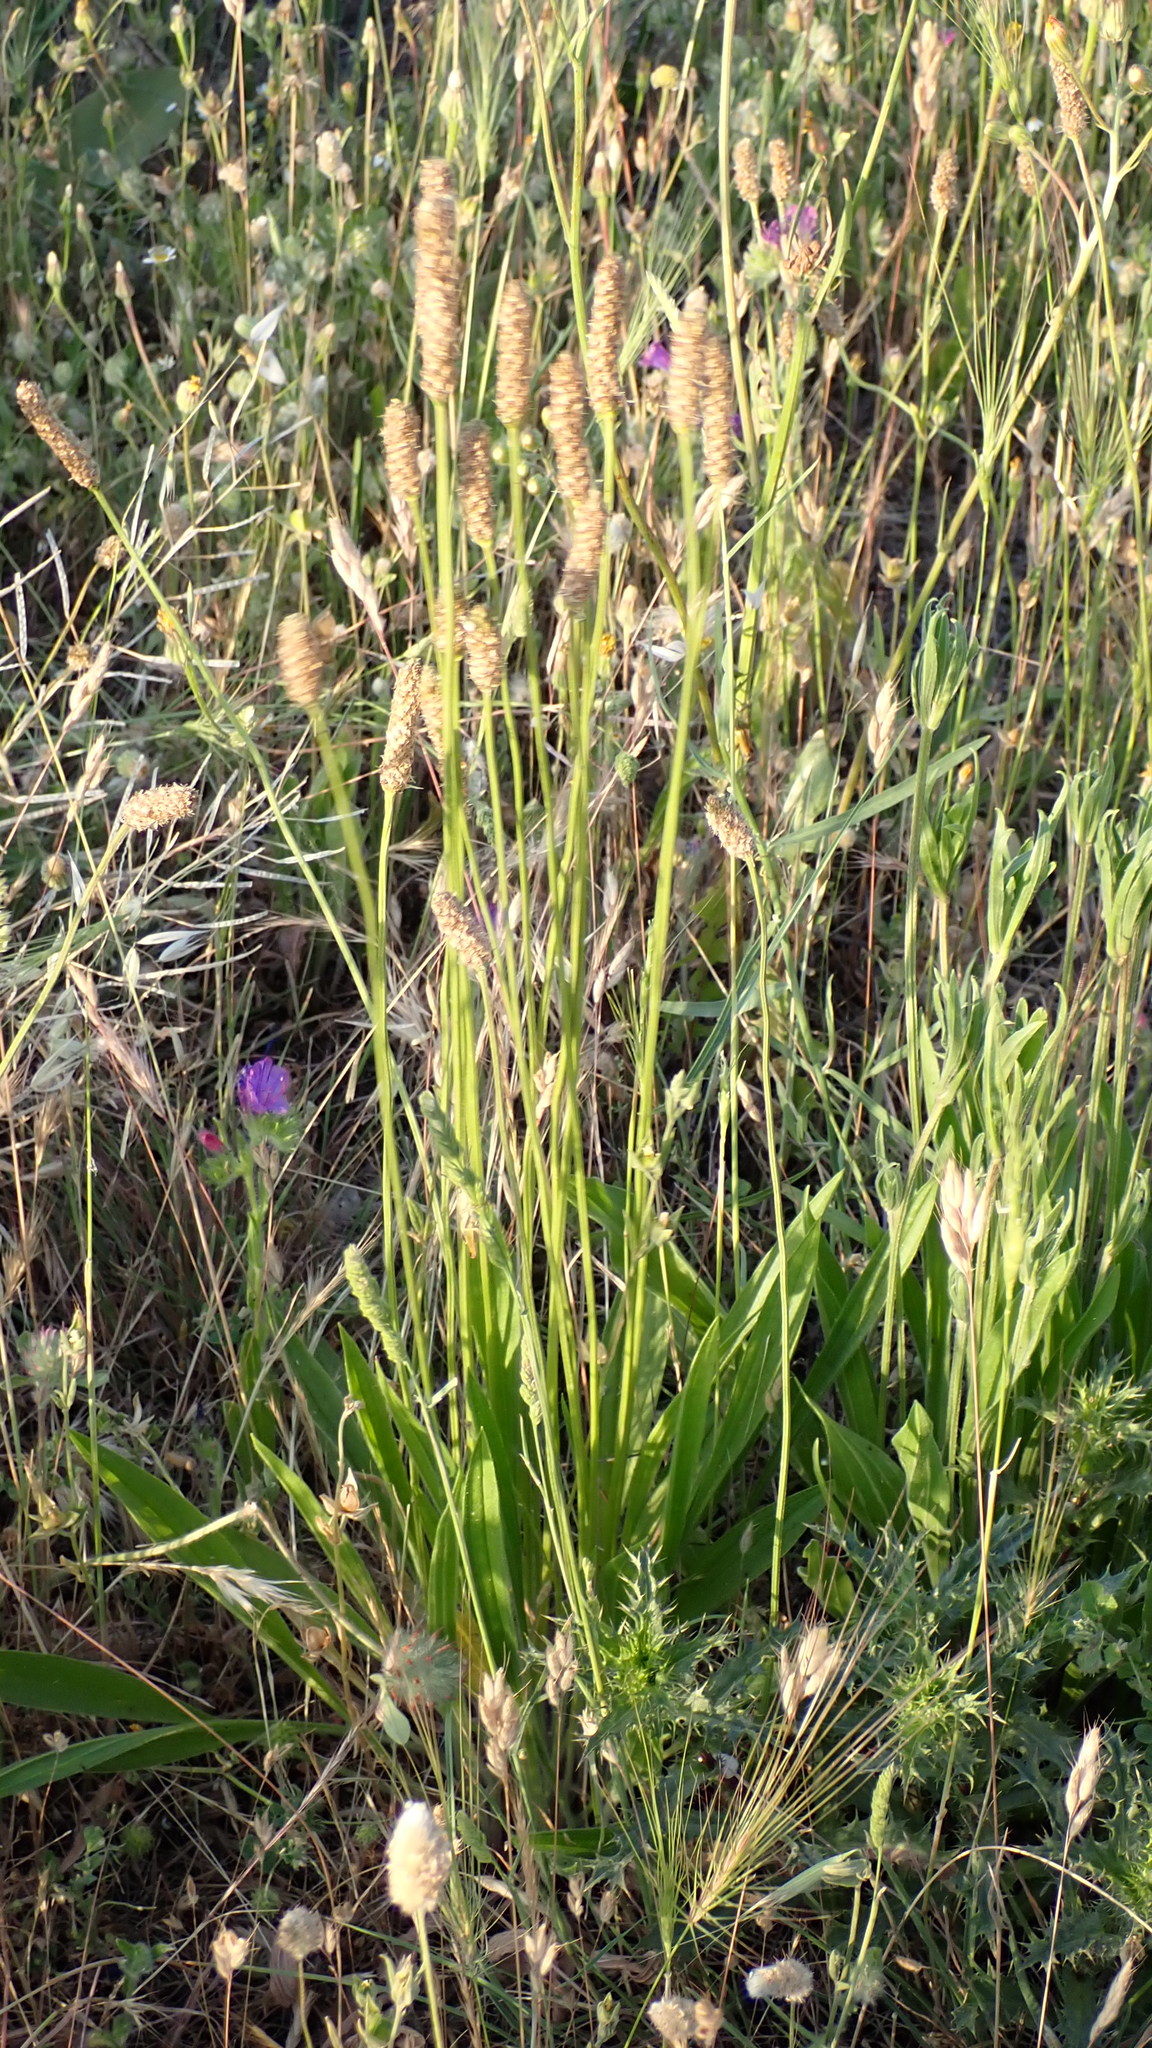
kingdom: Plantae
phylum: Tracheophyta
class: Magnoliopsida
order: Lamiales
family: Plantaginaceae
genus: Plantago
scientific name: Plantago lanceolata
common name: Ribwort plantain
